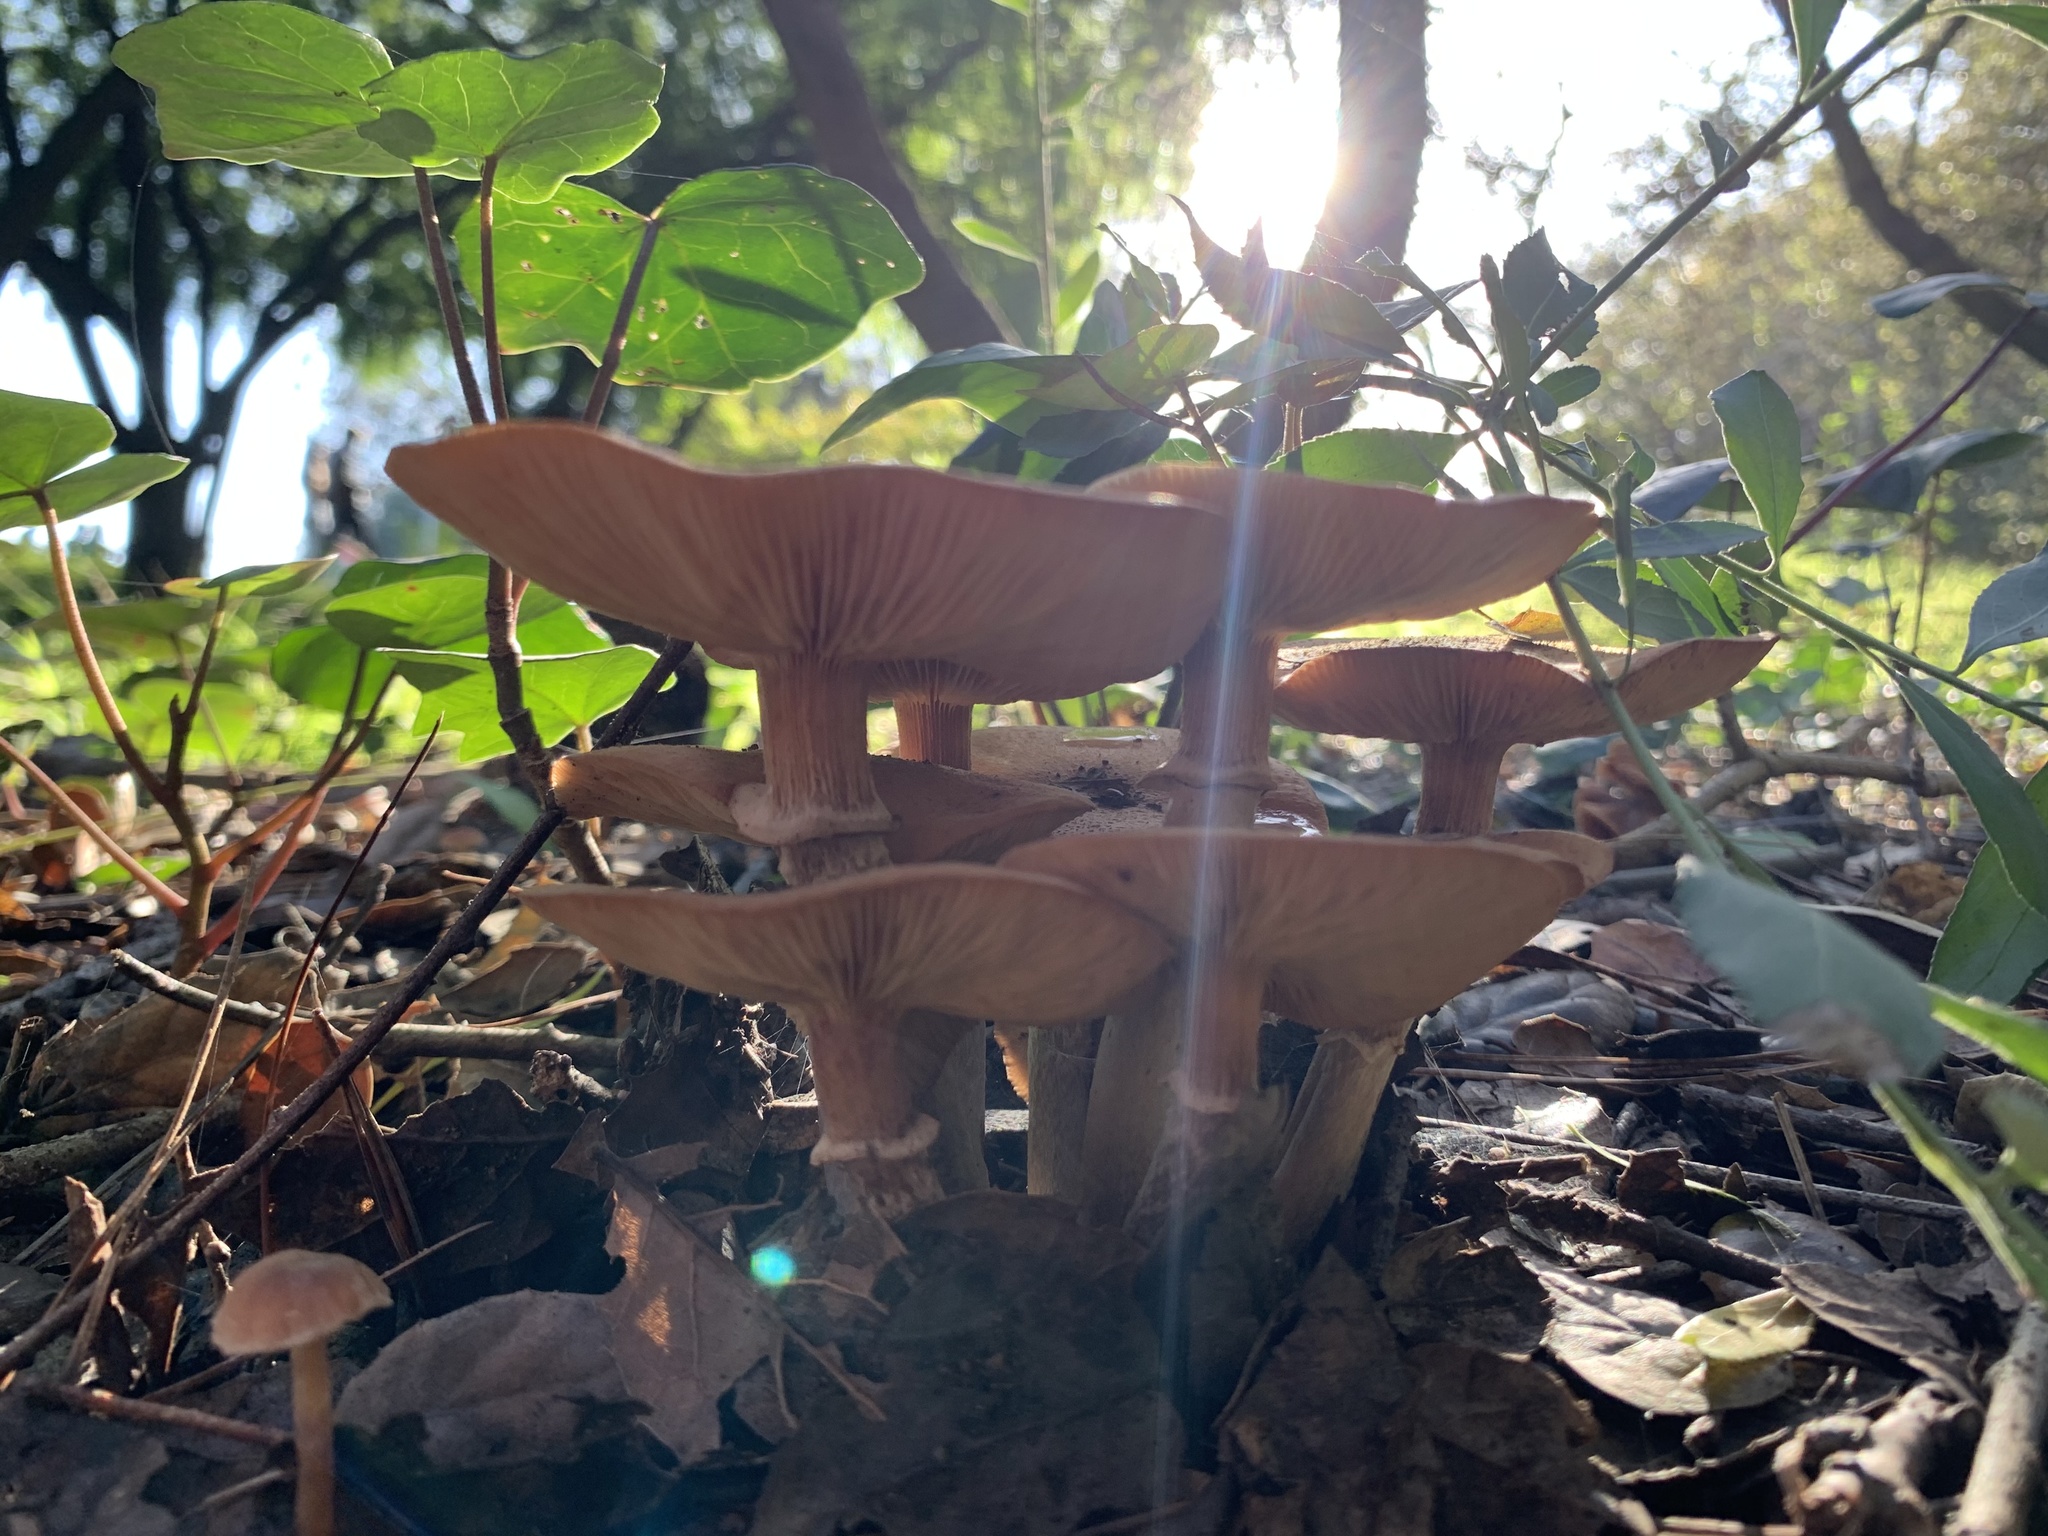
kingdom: Fungi
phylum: Basidiomycota
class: Agaricomycetes
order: Agaricales
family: Physalacriaceae
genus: Armillaria
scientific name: Armillaria mellea
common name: Honey fungus
